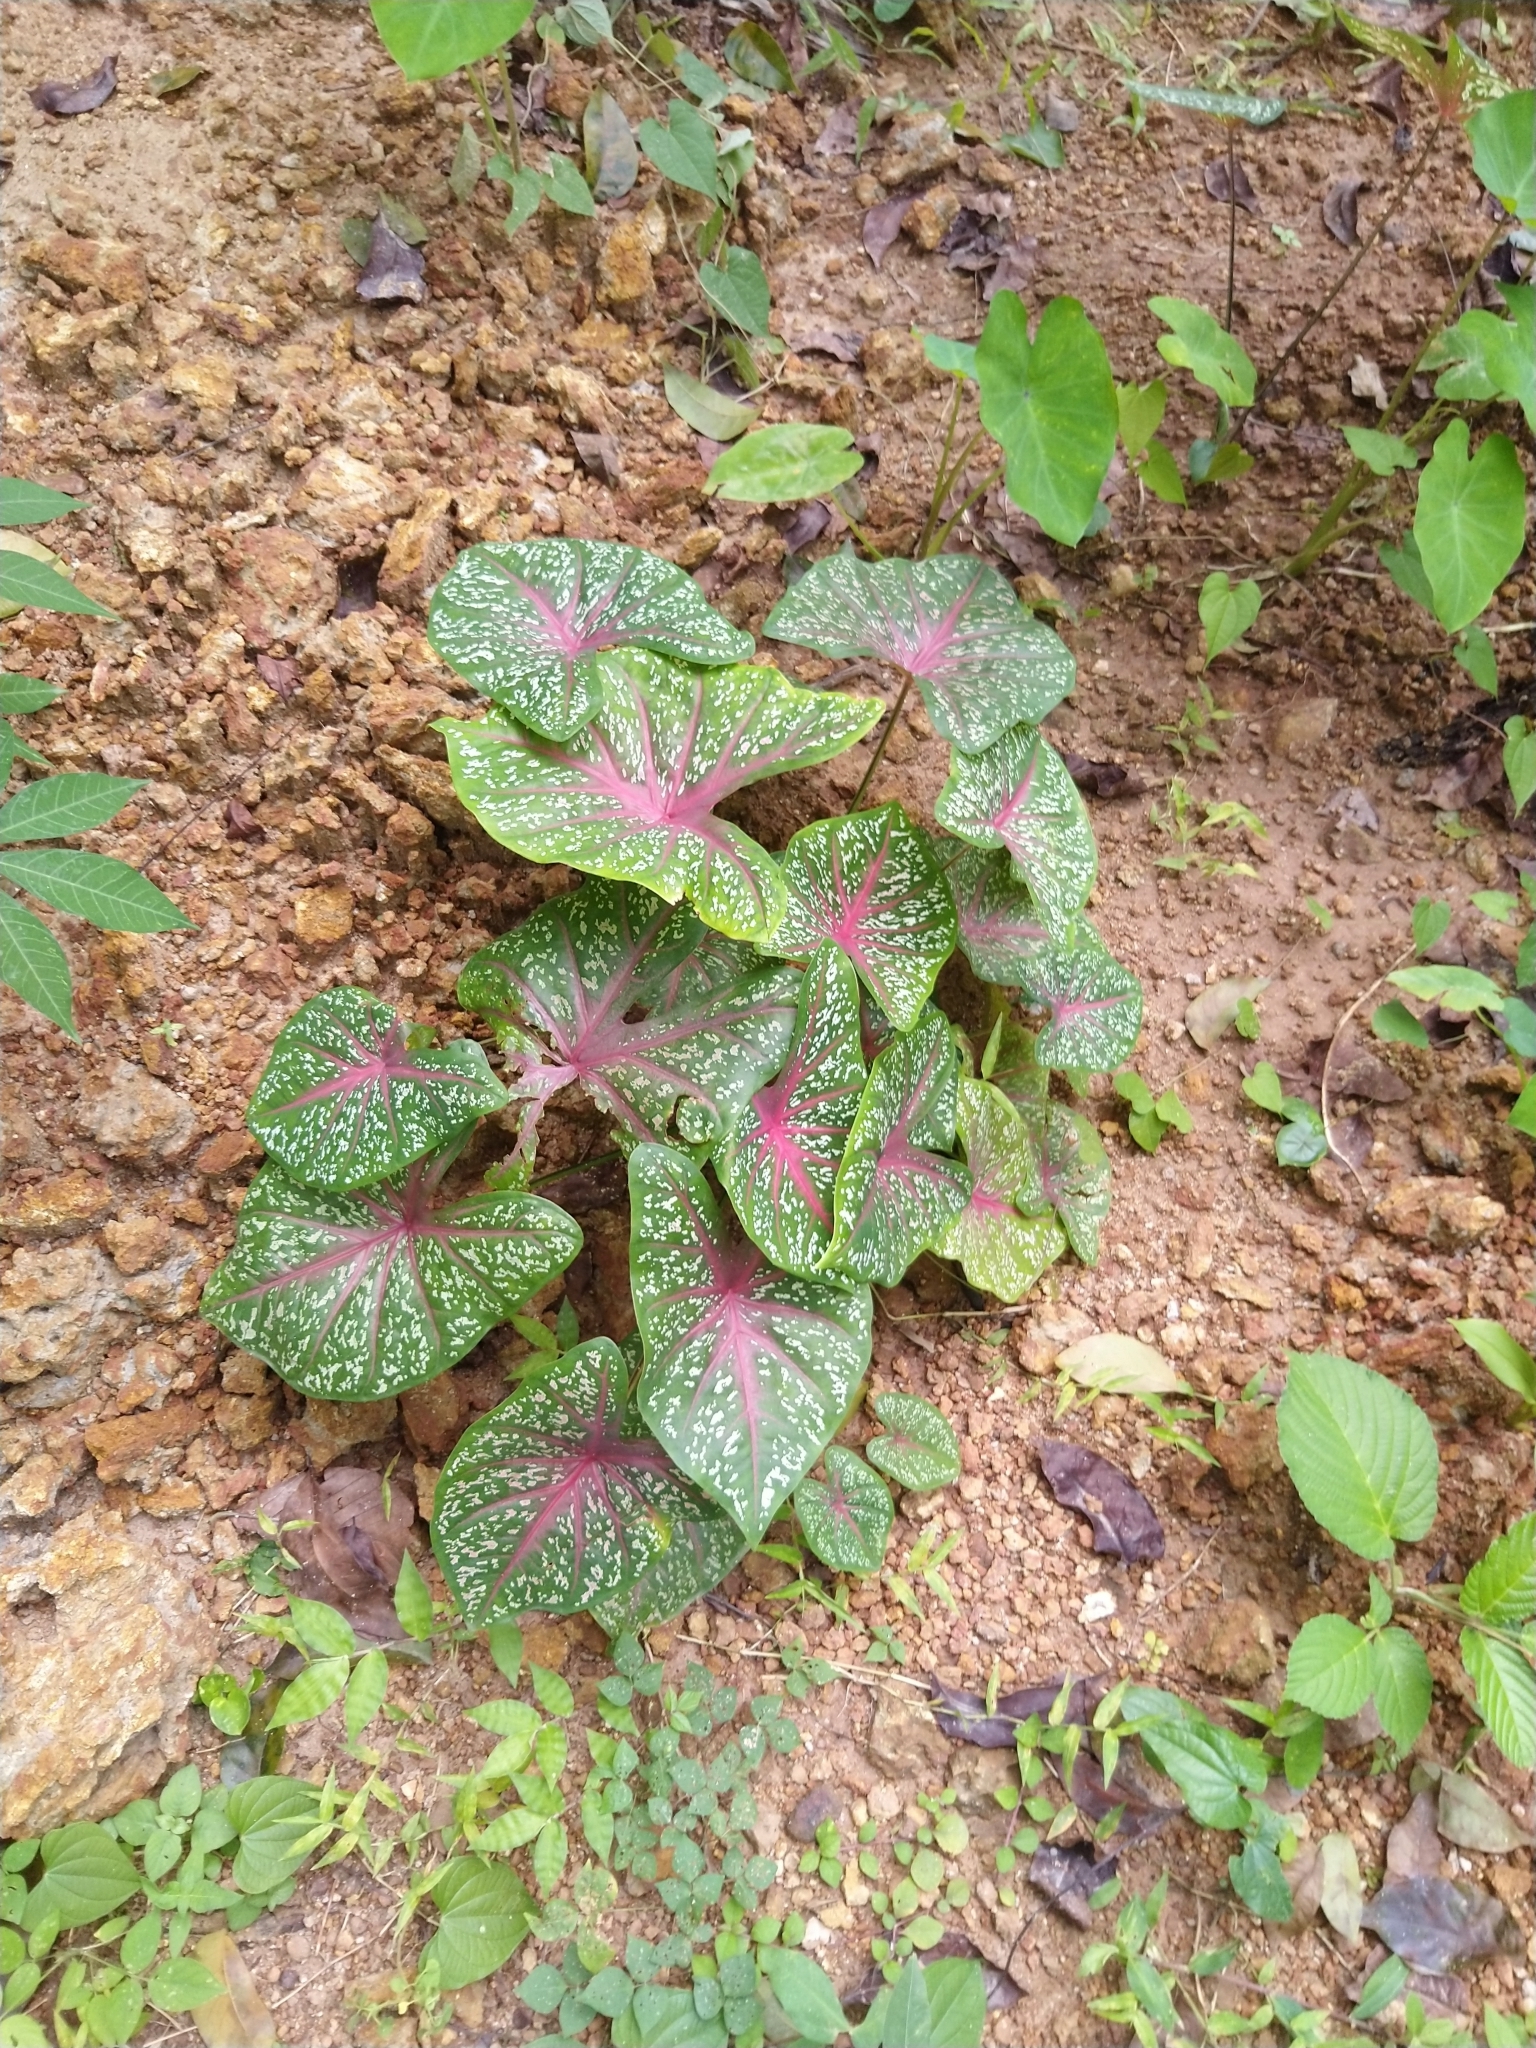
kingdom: Plantae
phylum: Tracheophyta
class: Liliopsida
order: Alismatales
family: Araceae
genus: Caladium
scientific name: Caladium bicolor
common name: Artist's pallet
